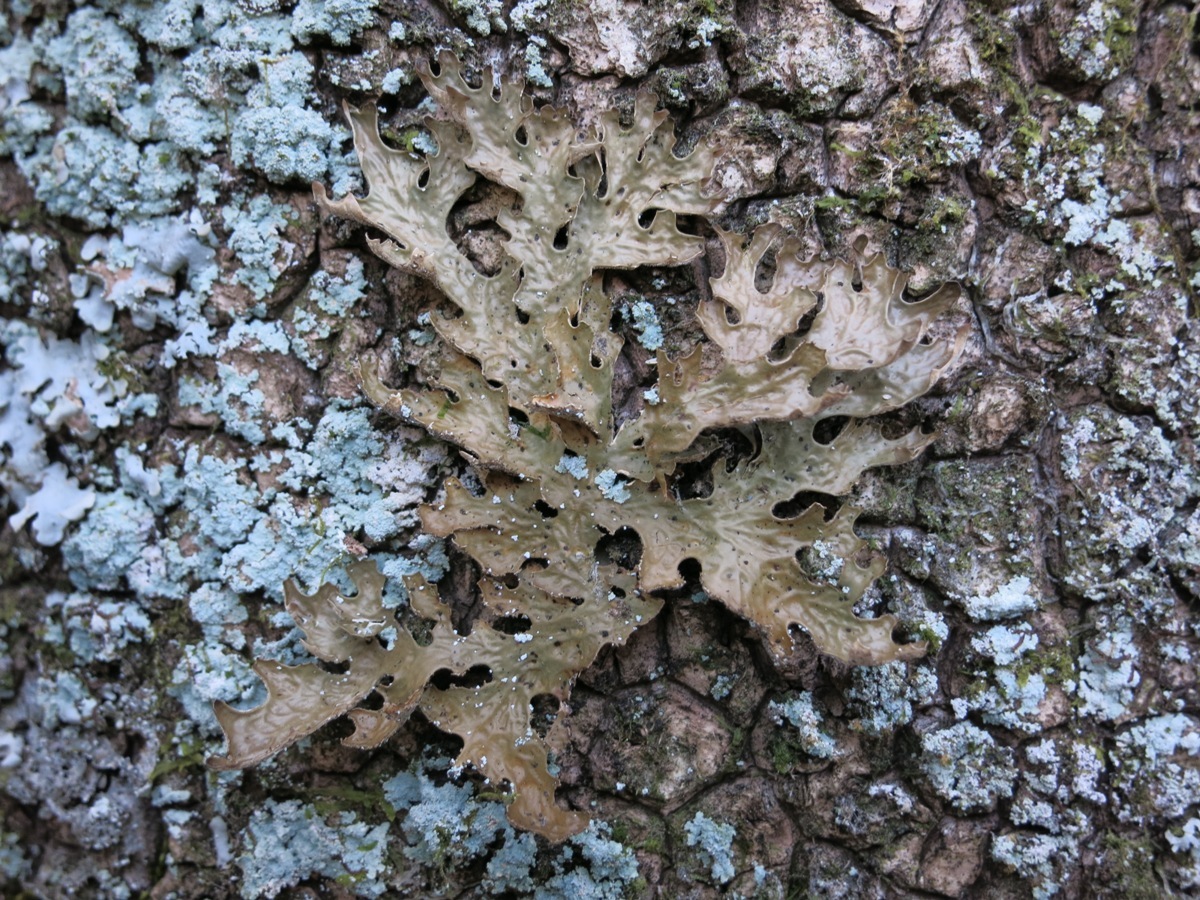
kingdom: Fungi
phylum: Ascomycota
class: Lecanoromycetes
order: Peltigerales
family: Lobariaceae
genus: Lobaria
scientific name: Lobaria pulmonaria
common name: Lungwort
